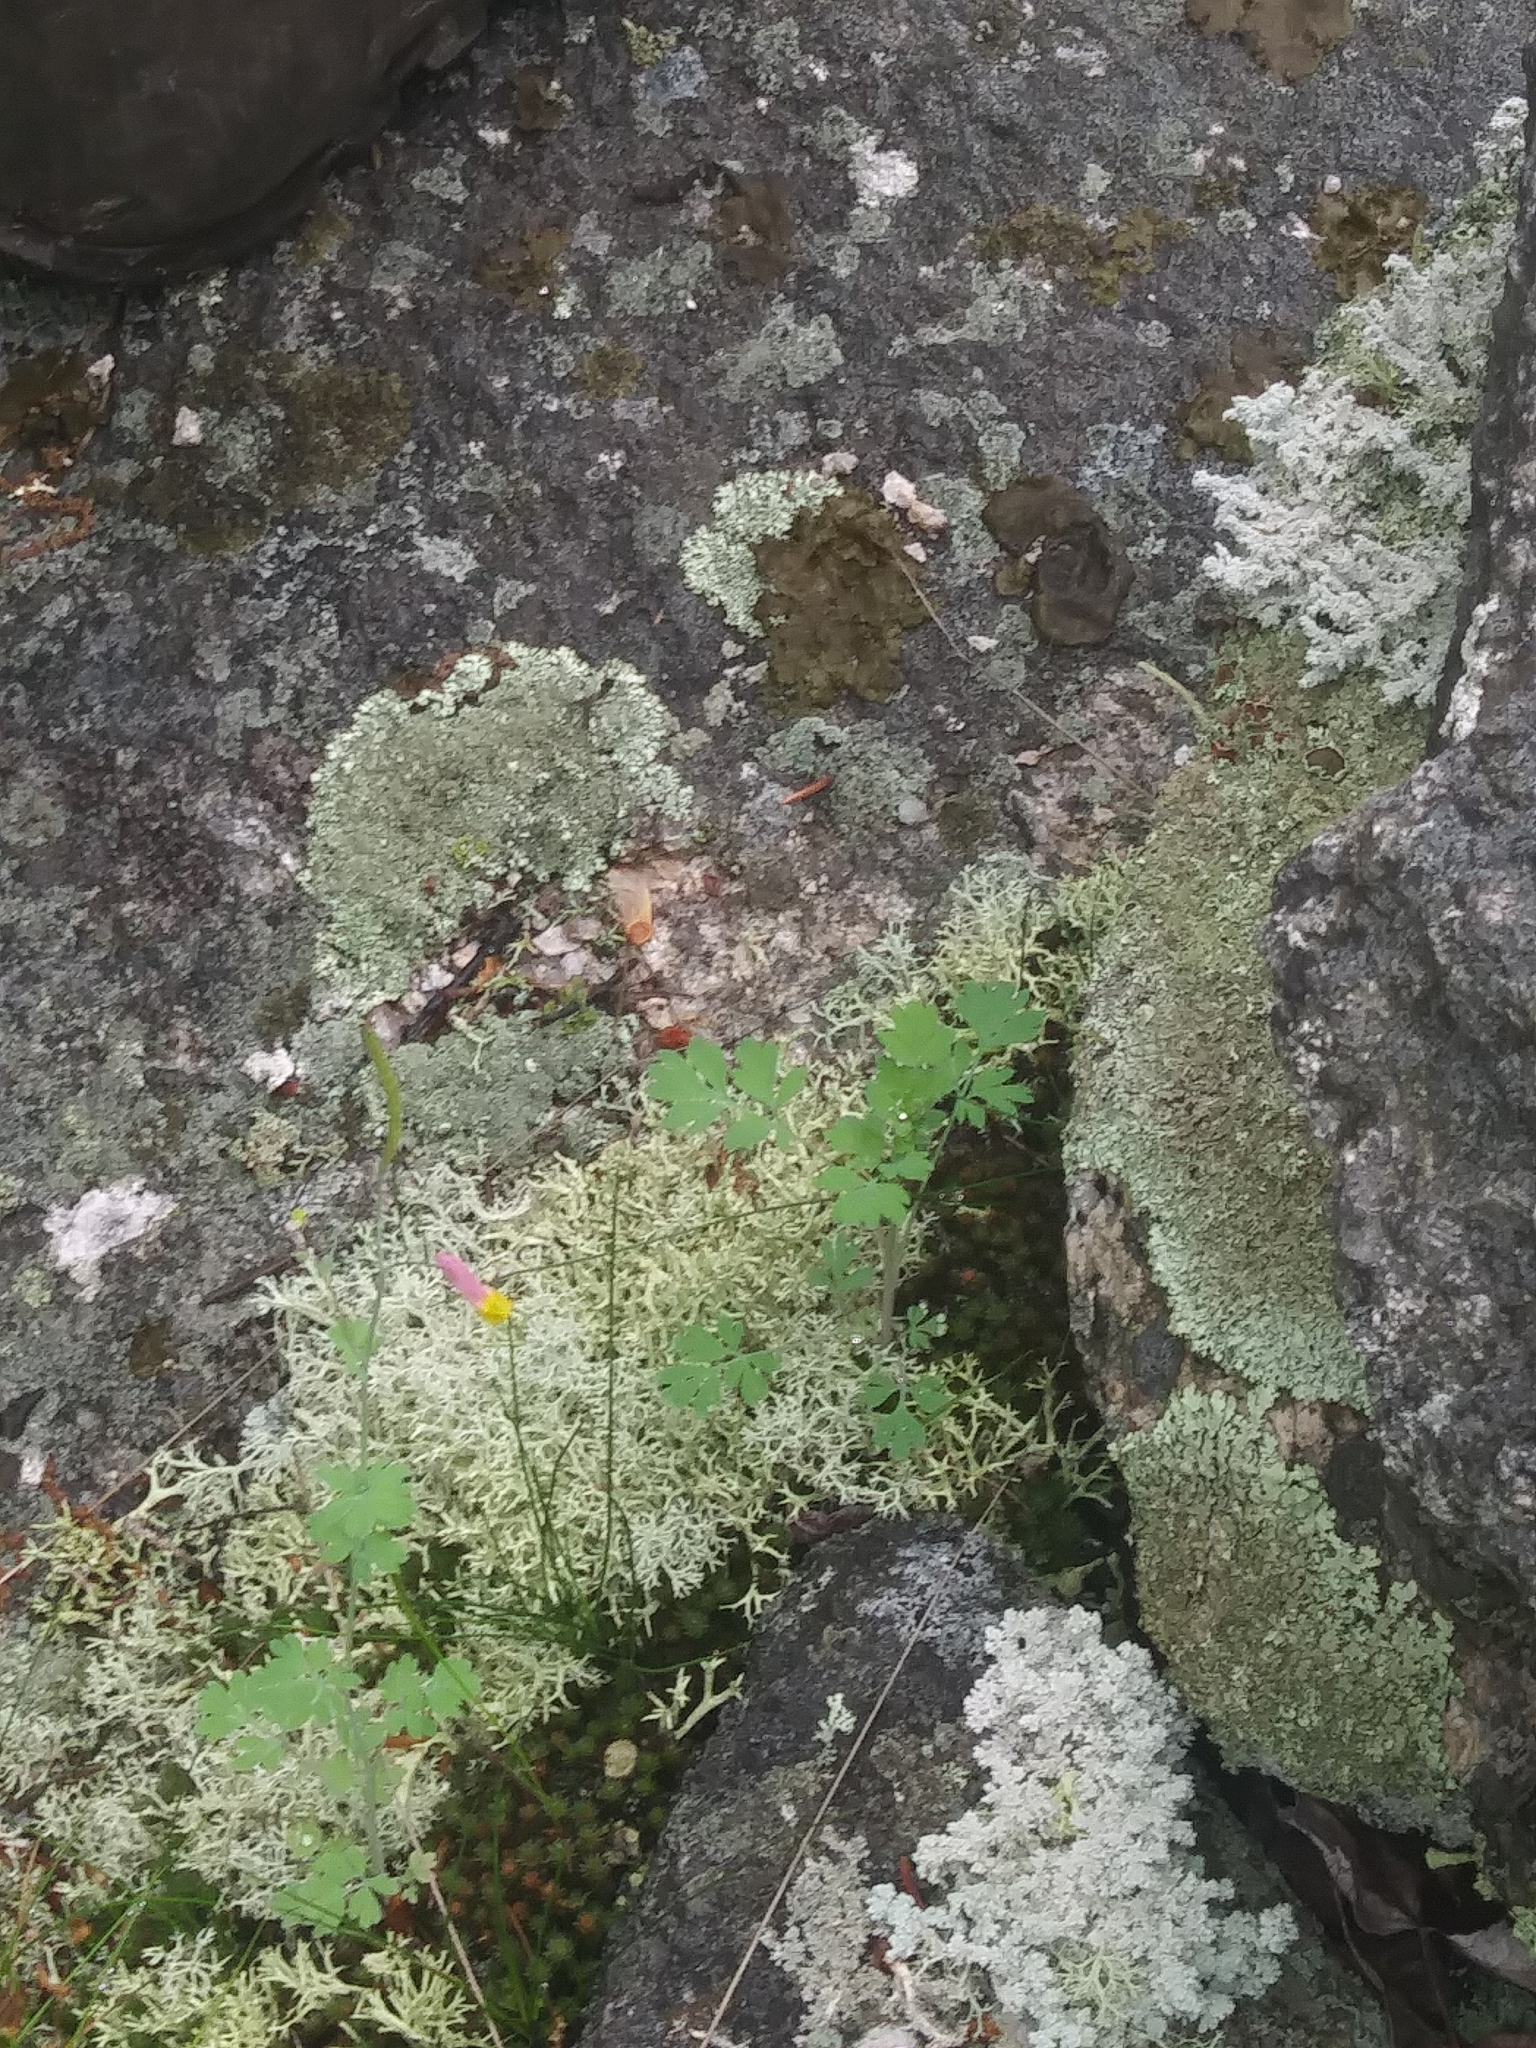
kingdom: Plantae
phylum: Tracheophyta
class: Magnoliopsida
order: Ranunculales
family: Papaveraceae
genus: Capnoides
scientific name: Capnoides sempervirens
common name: Rock harlequin
